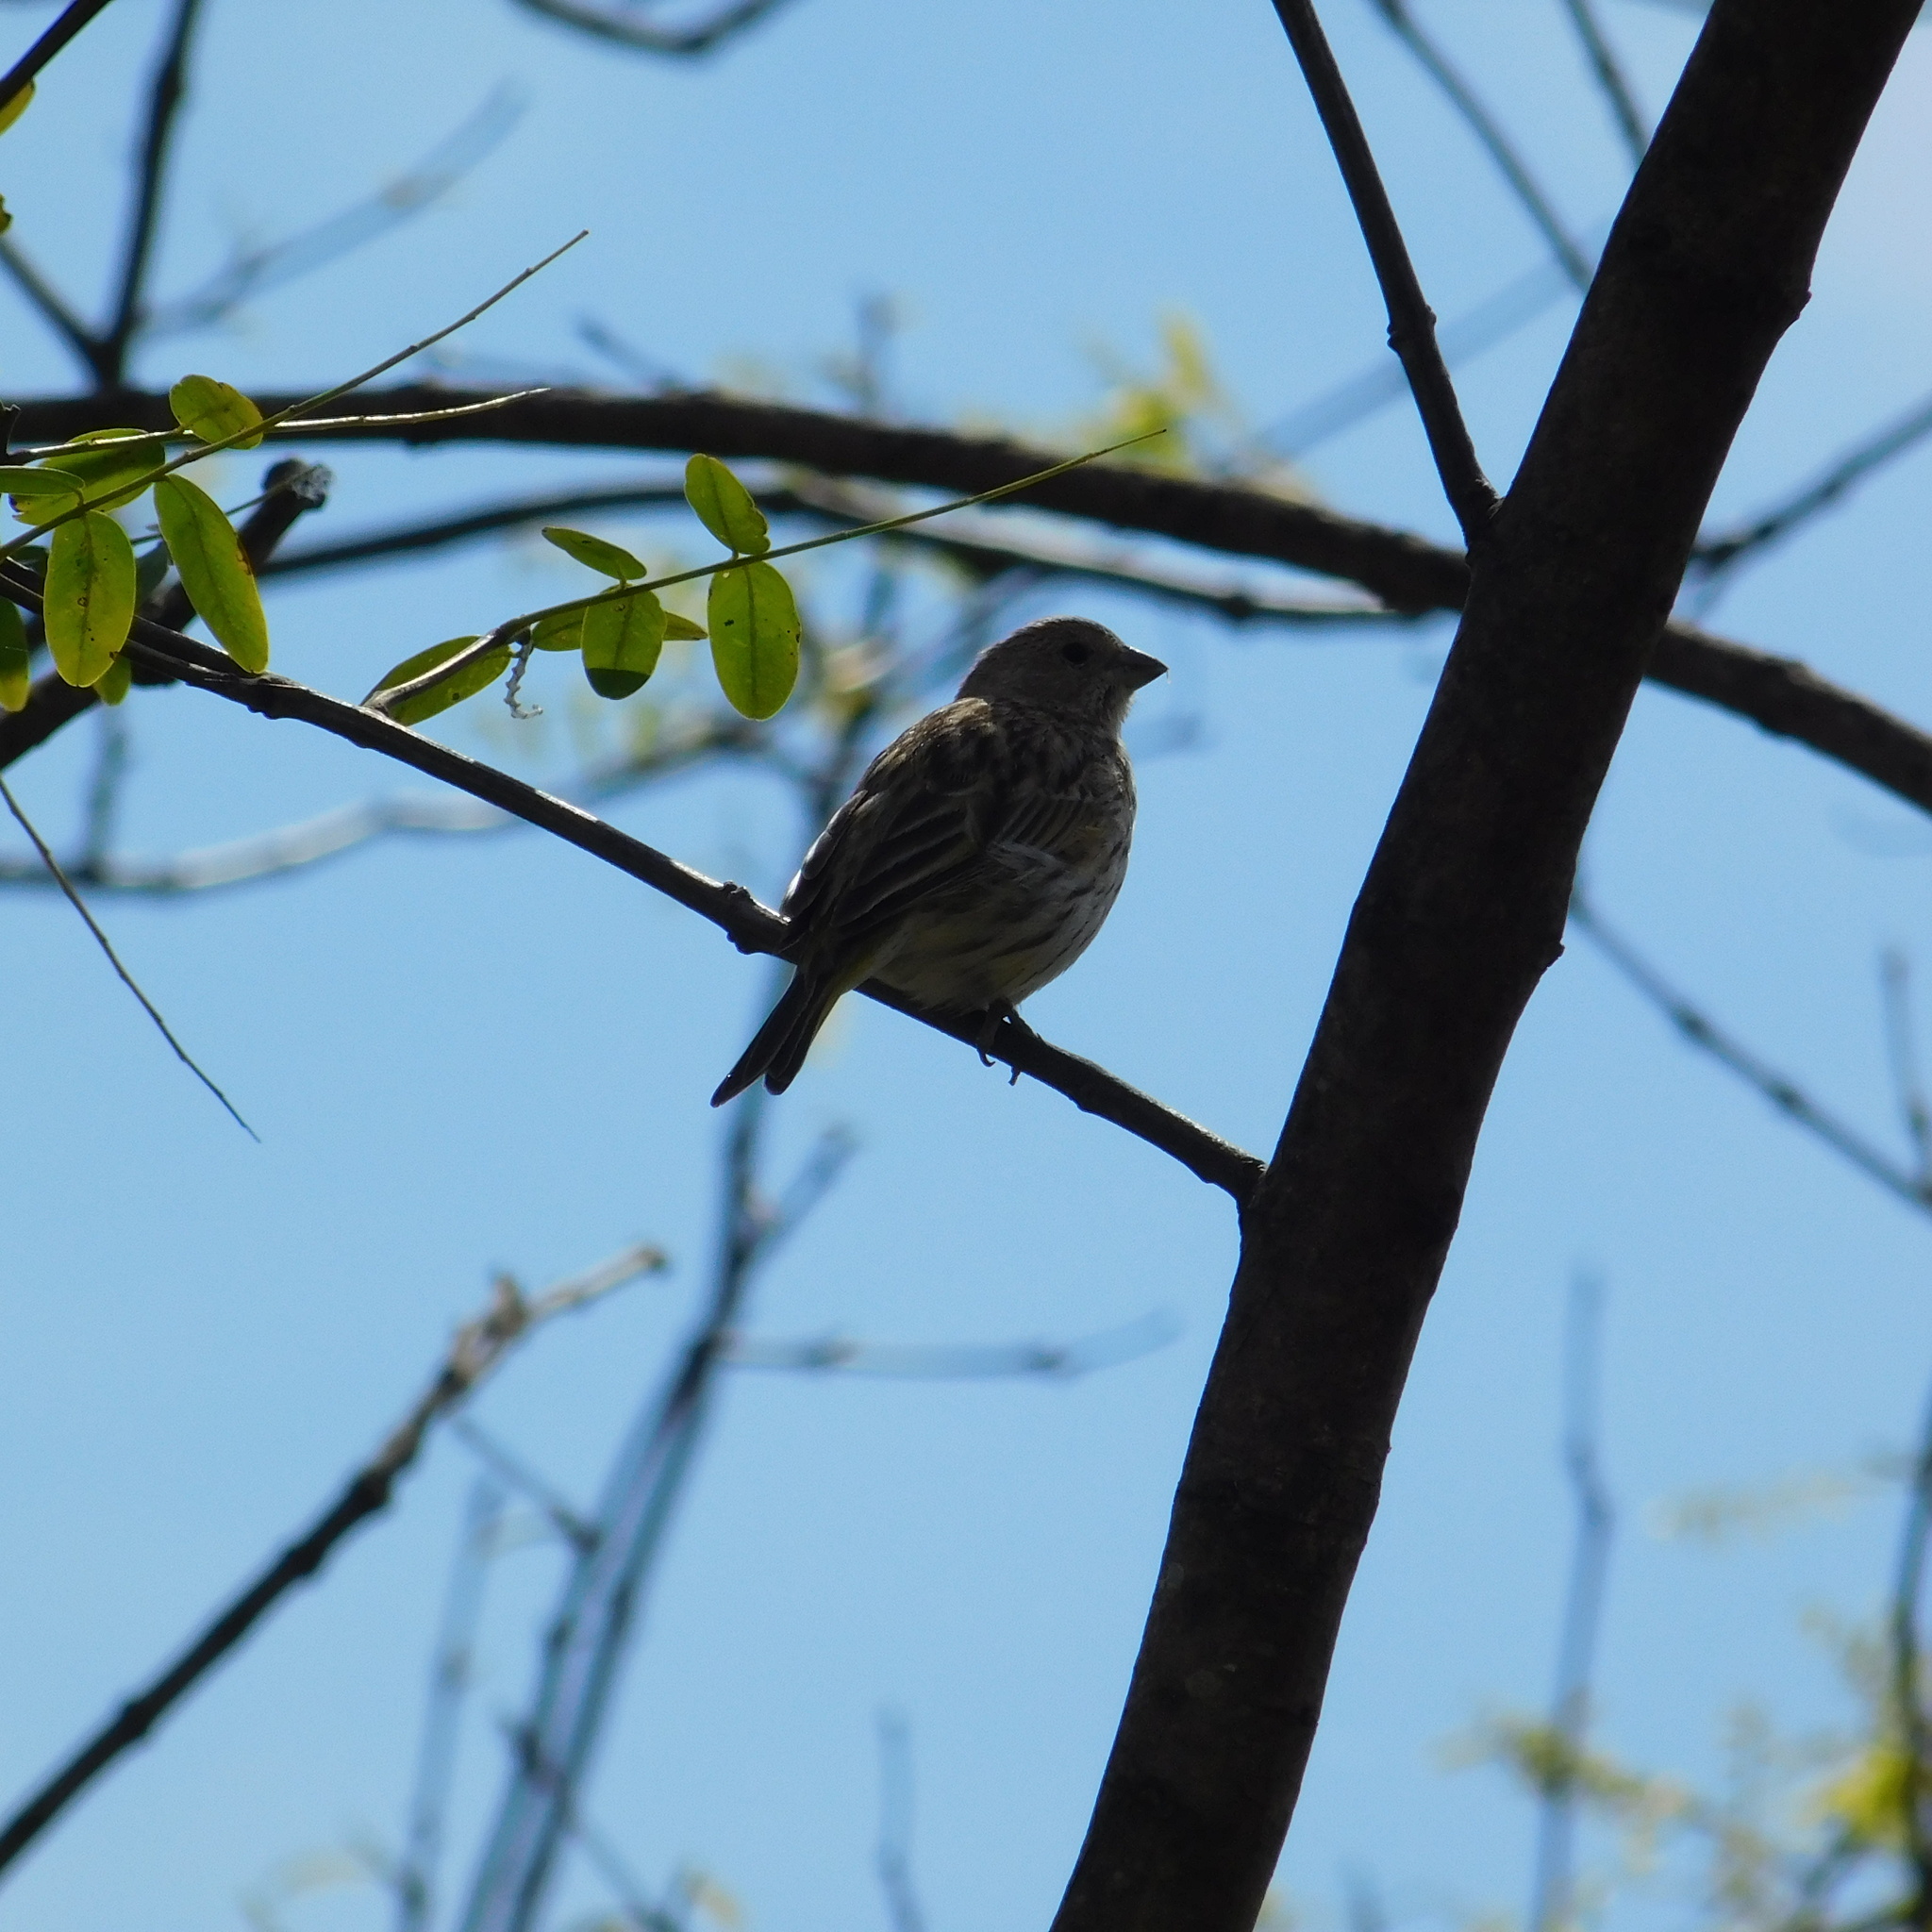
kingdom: Animalia
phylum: Chordata
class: Aves
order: Passeriformes
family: Thraupidae
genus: Sicalis
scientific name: Sicalis flaveola
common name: Saffron finch
